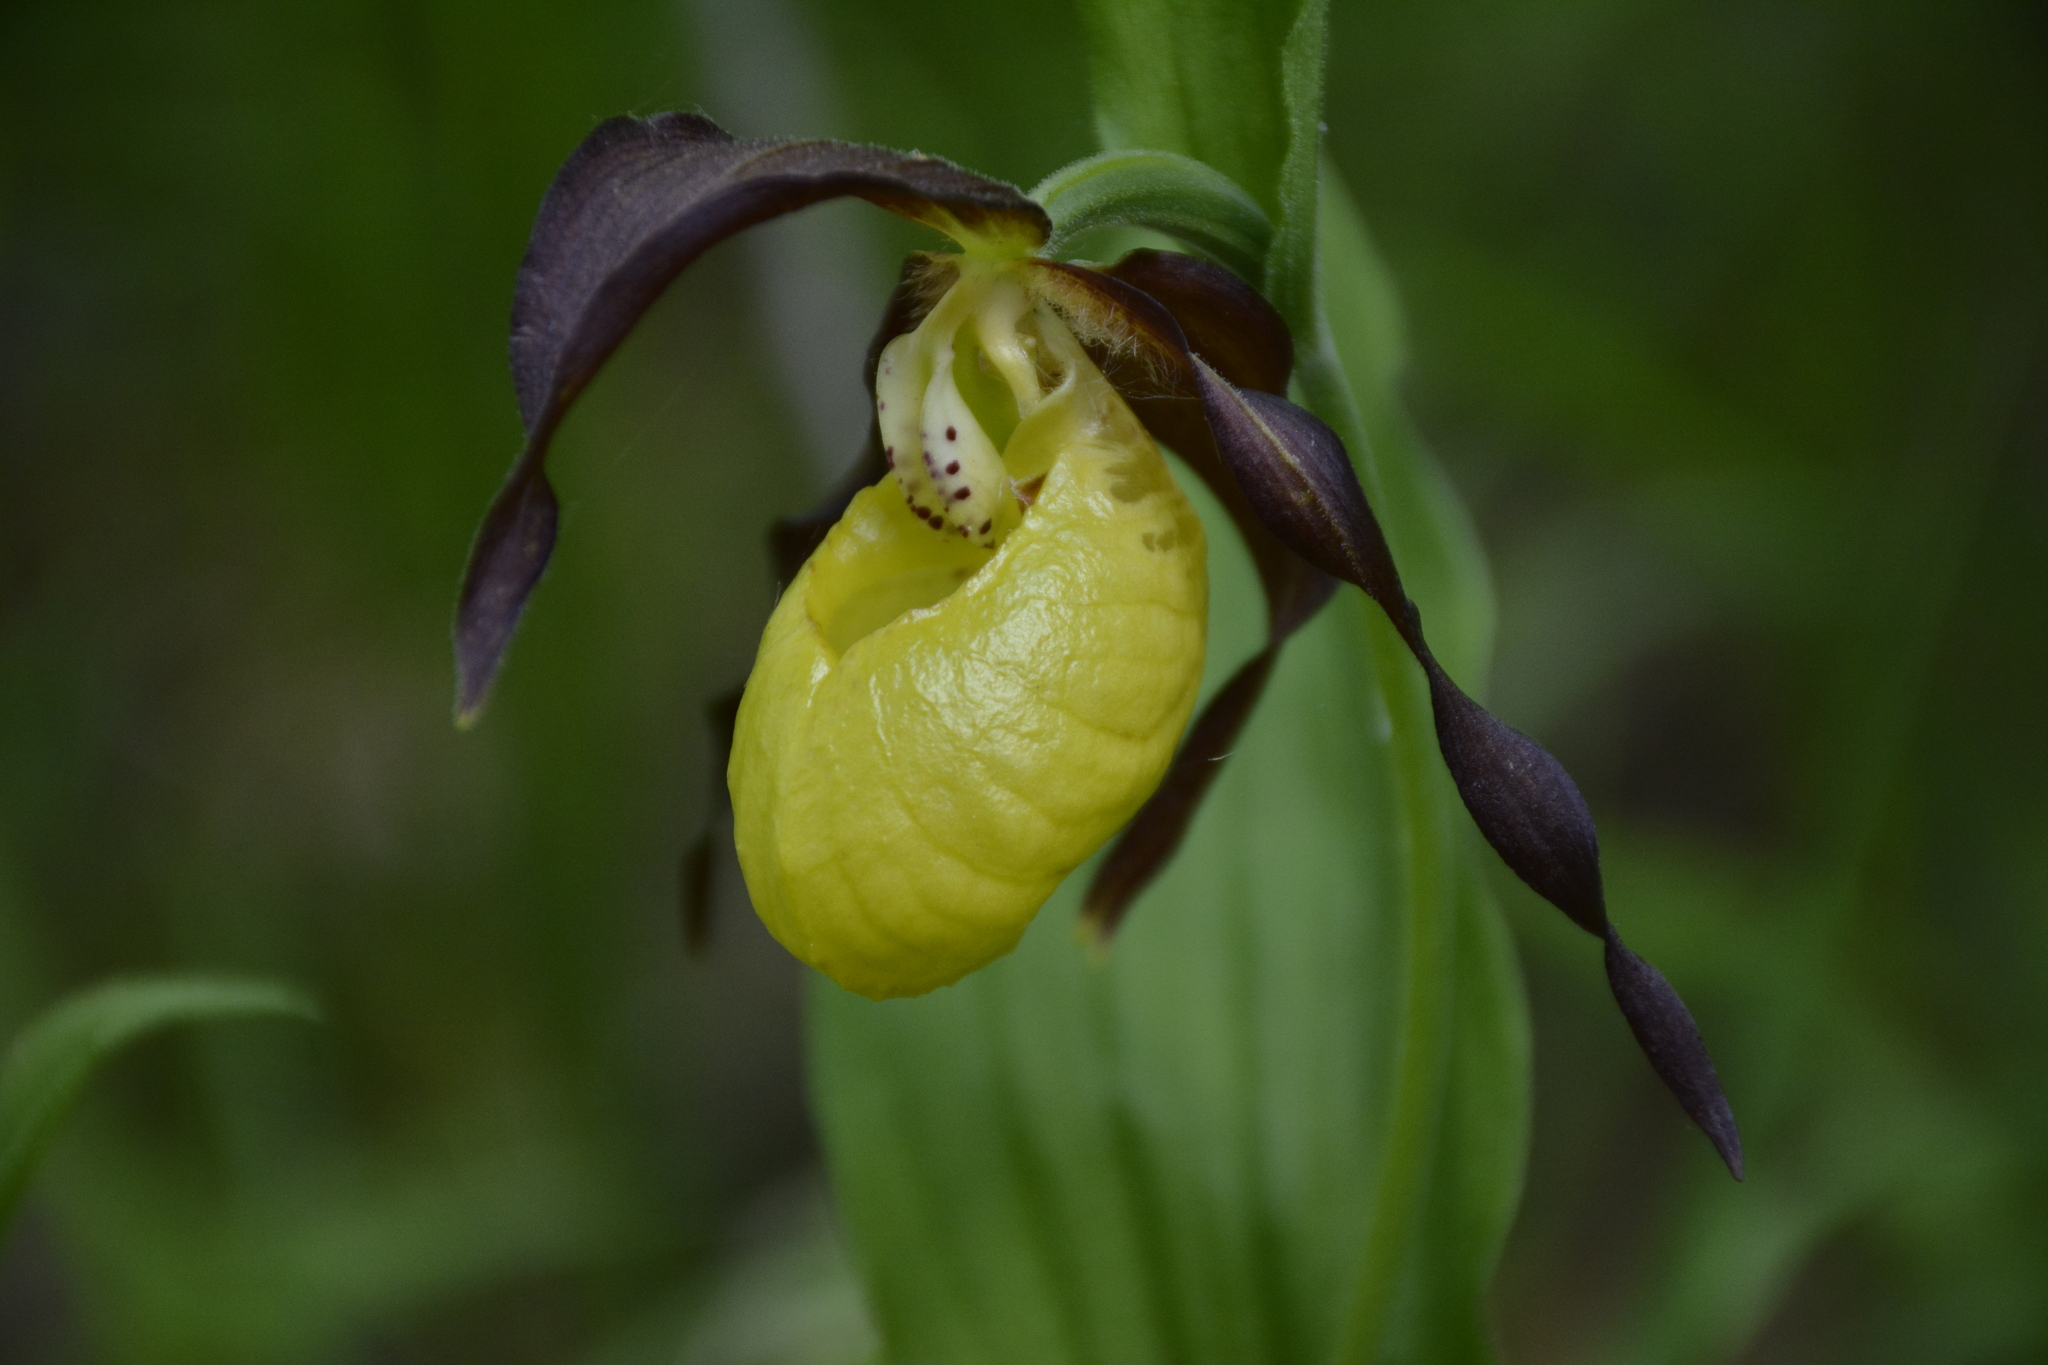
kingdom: Plantae
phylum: Tracheophyta
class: Liliopsida
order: Asparagales
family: Orchidaceae
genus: Cypripedium
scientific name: Cypripedium calceolus
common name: Lady's-slipper
